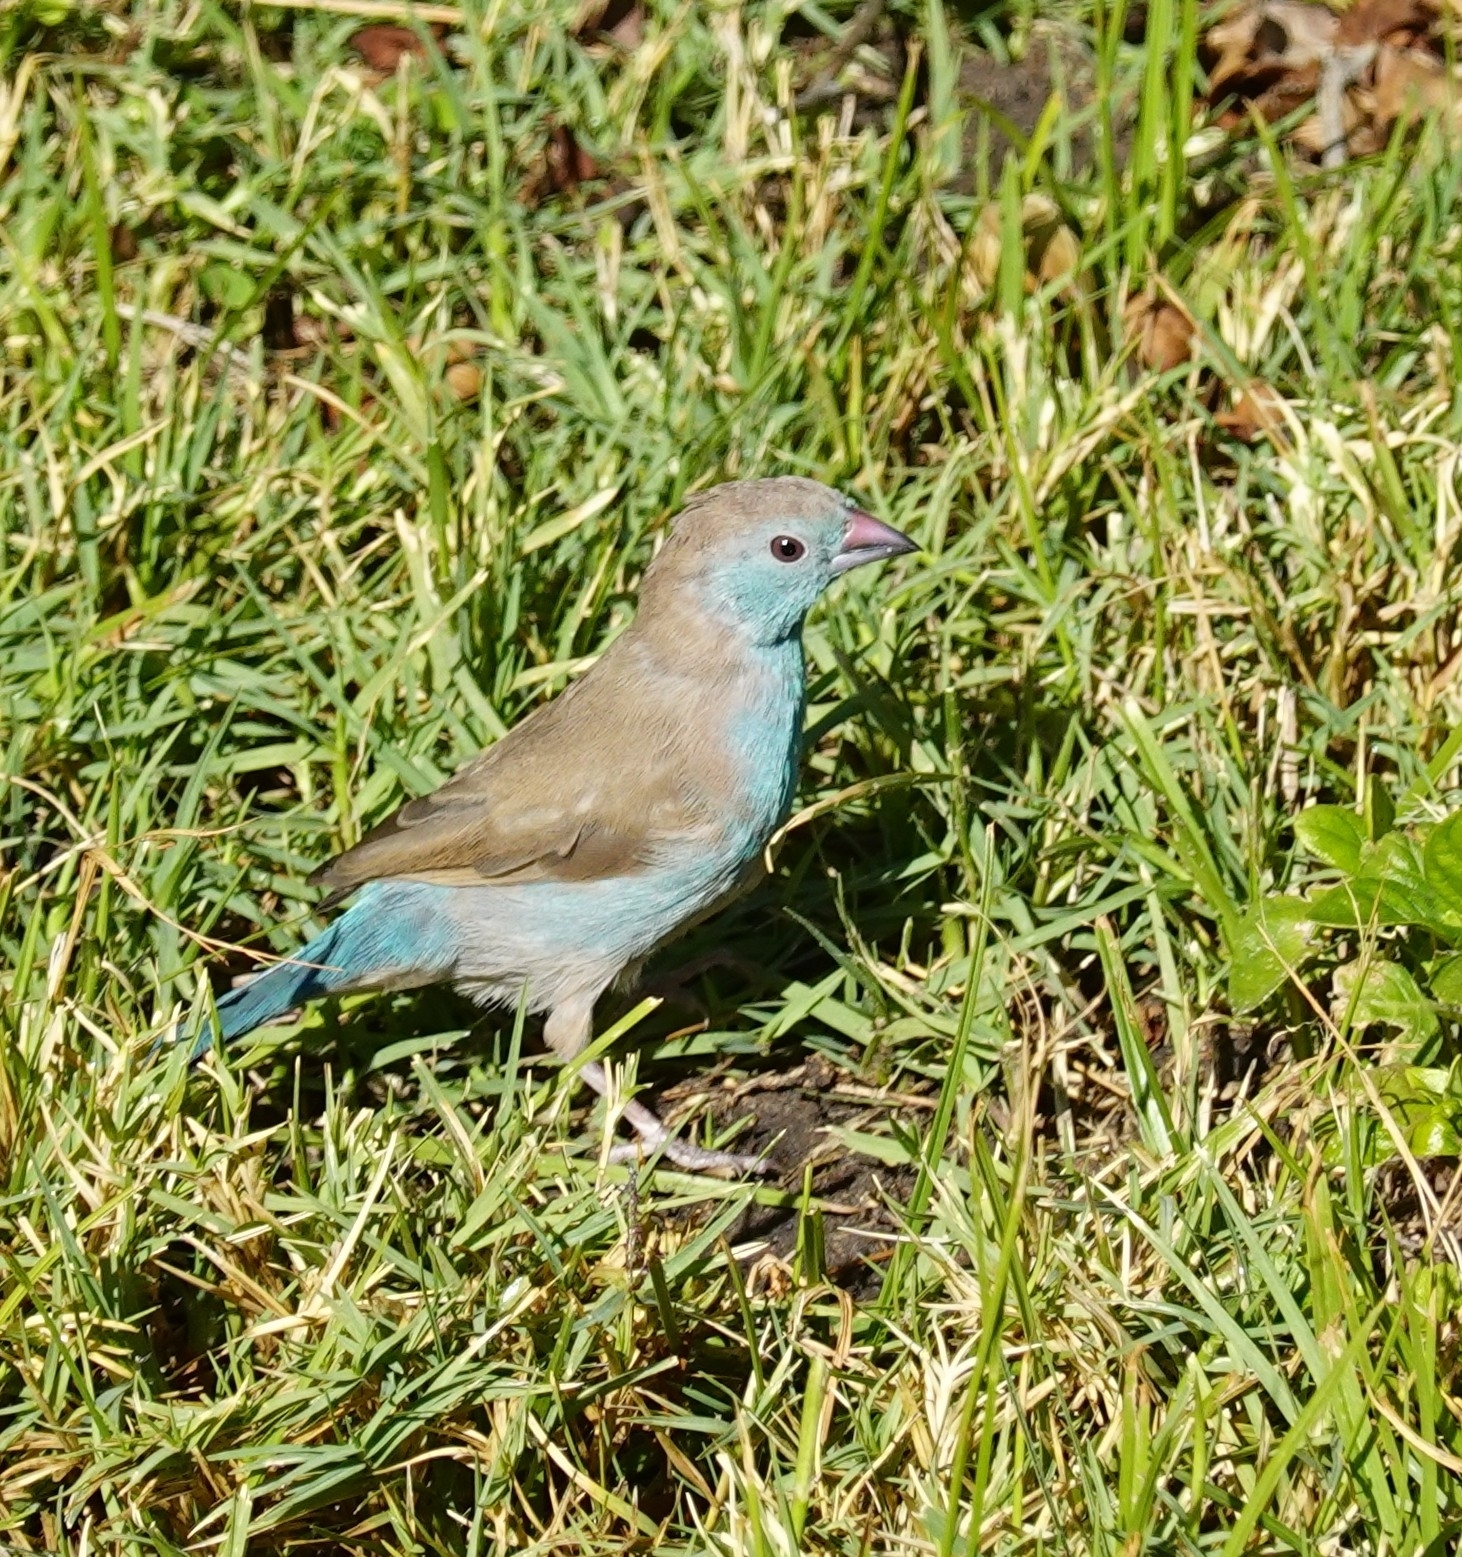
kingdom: Animalia
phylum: Chordata
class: Aves
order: Passeriformes
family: Estrildidae
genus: Uraeginthus
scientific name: Uraeginthus angolensis
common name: Blue waxbill
